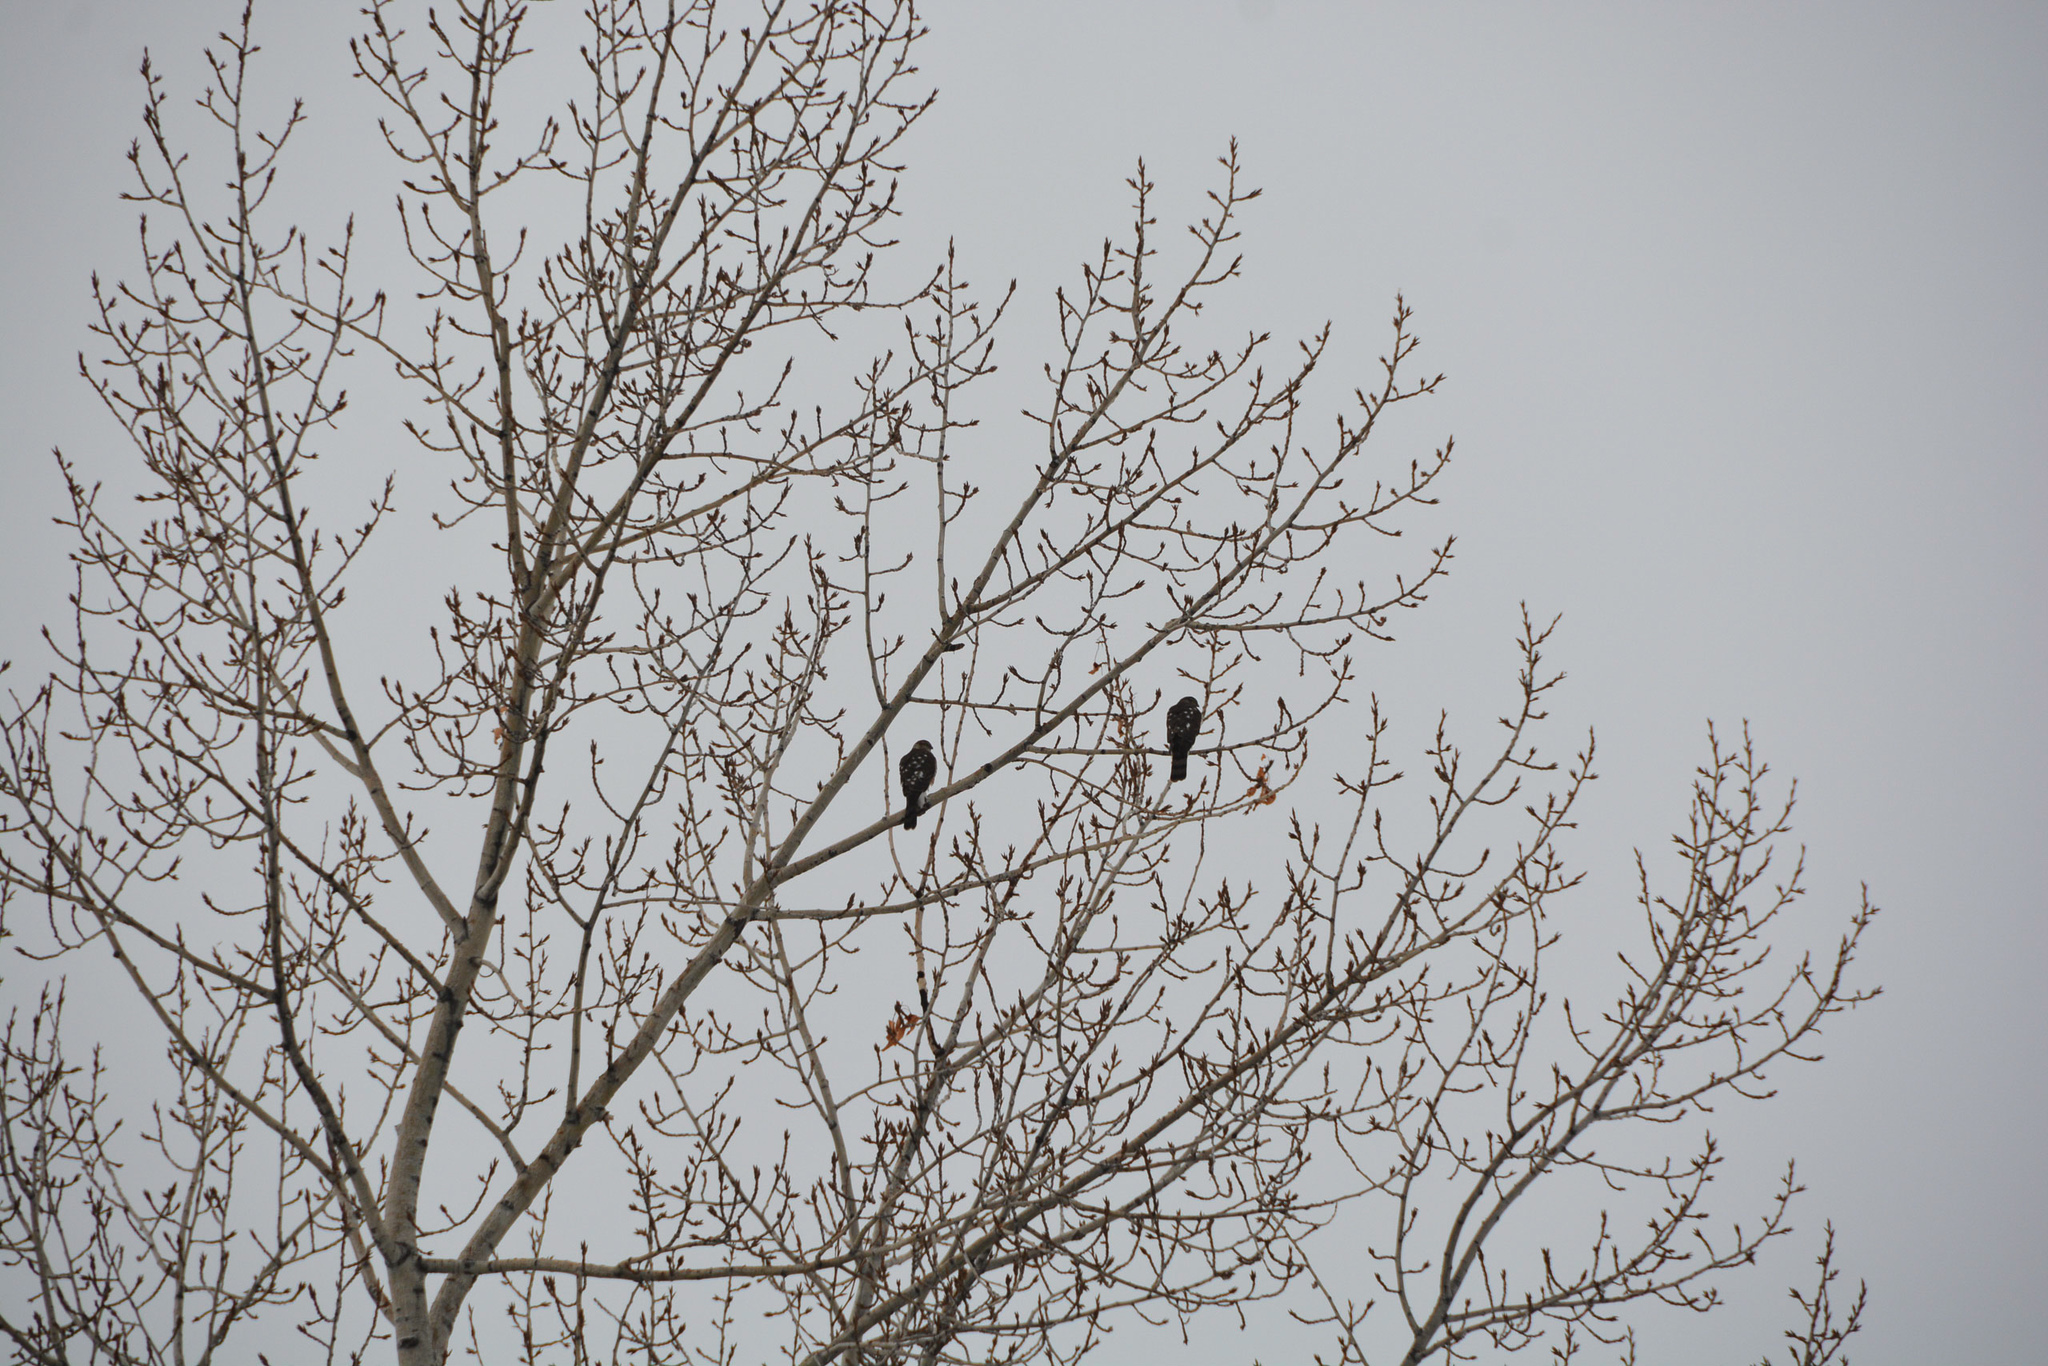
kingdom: Animalia
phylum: Chordata
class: Aves
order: Accipitriformes
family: Accipitridae
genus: Accipiter
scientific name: Accipiter
